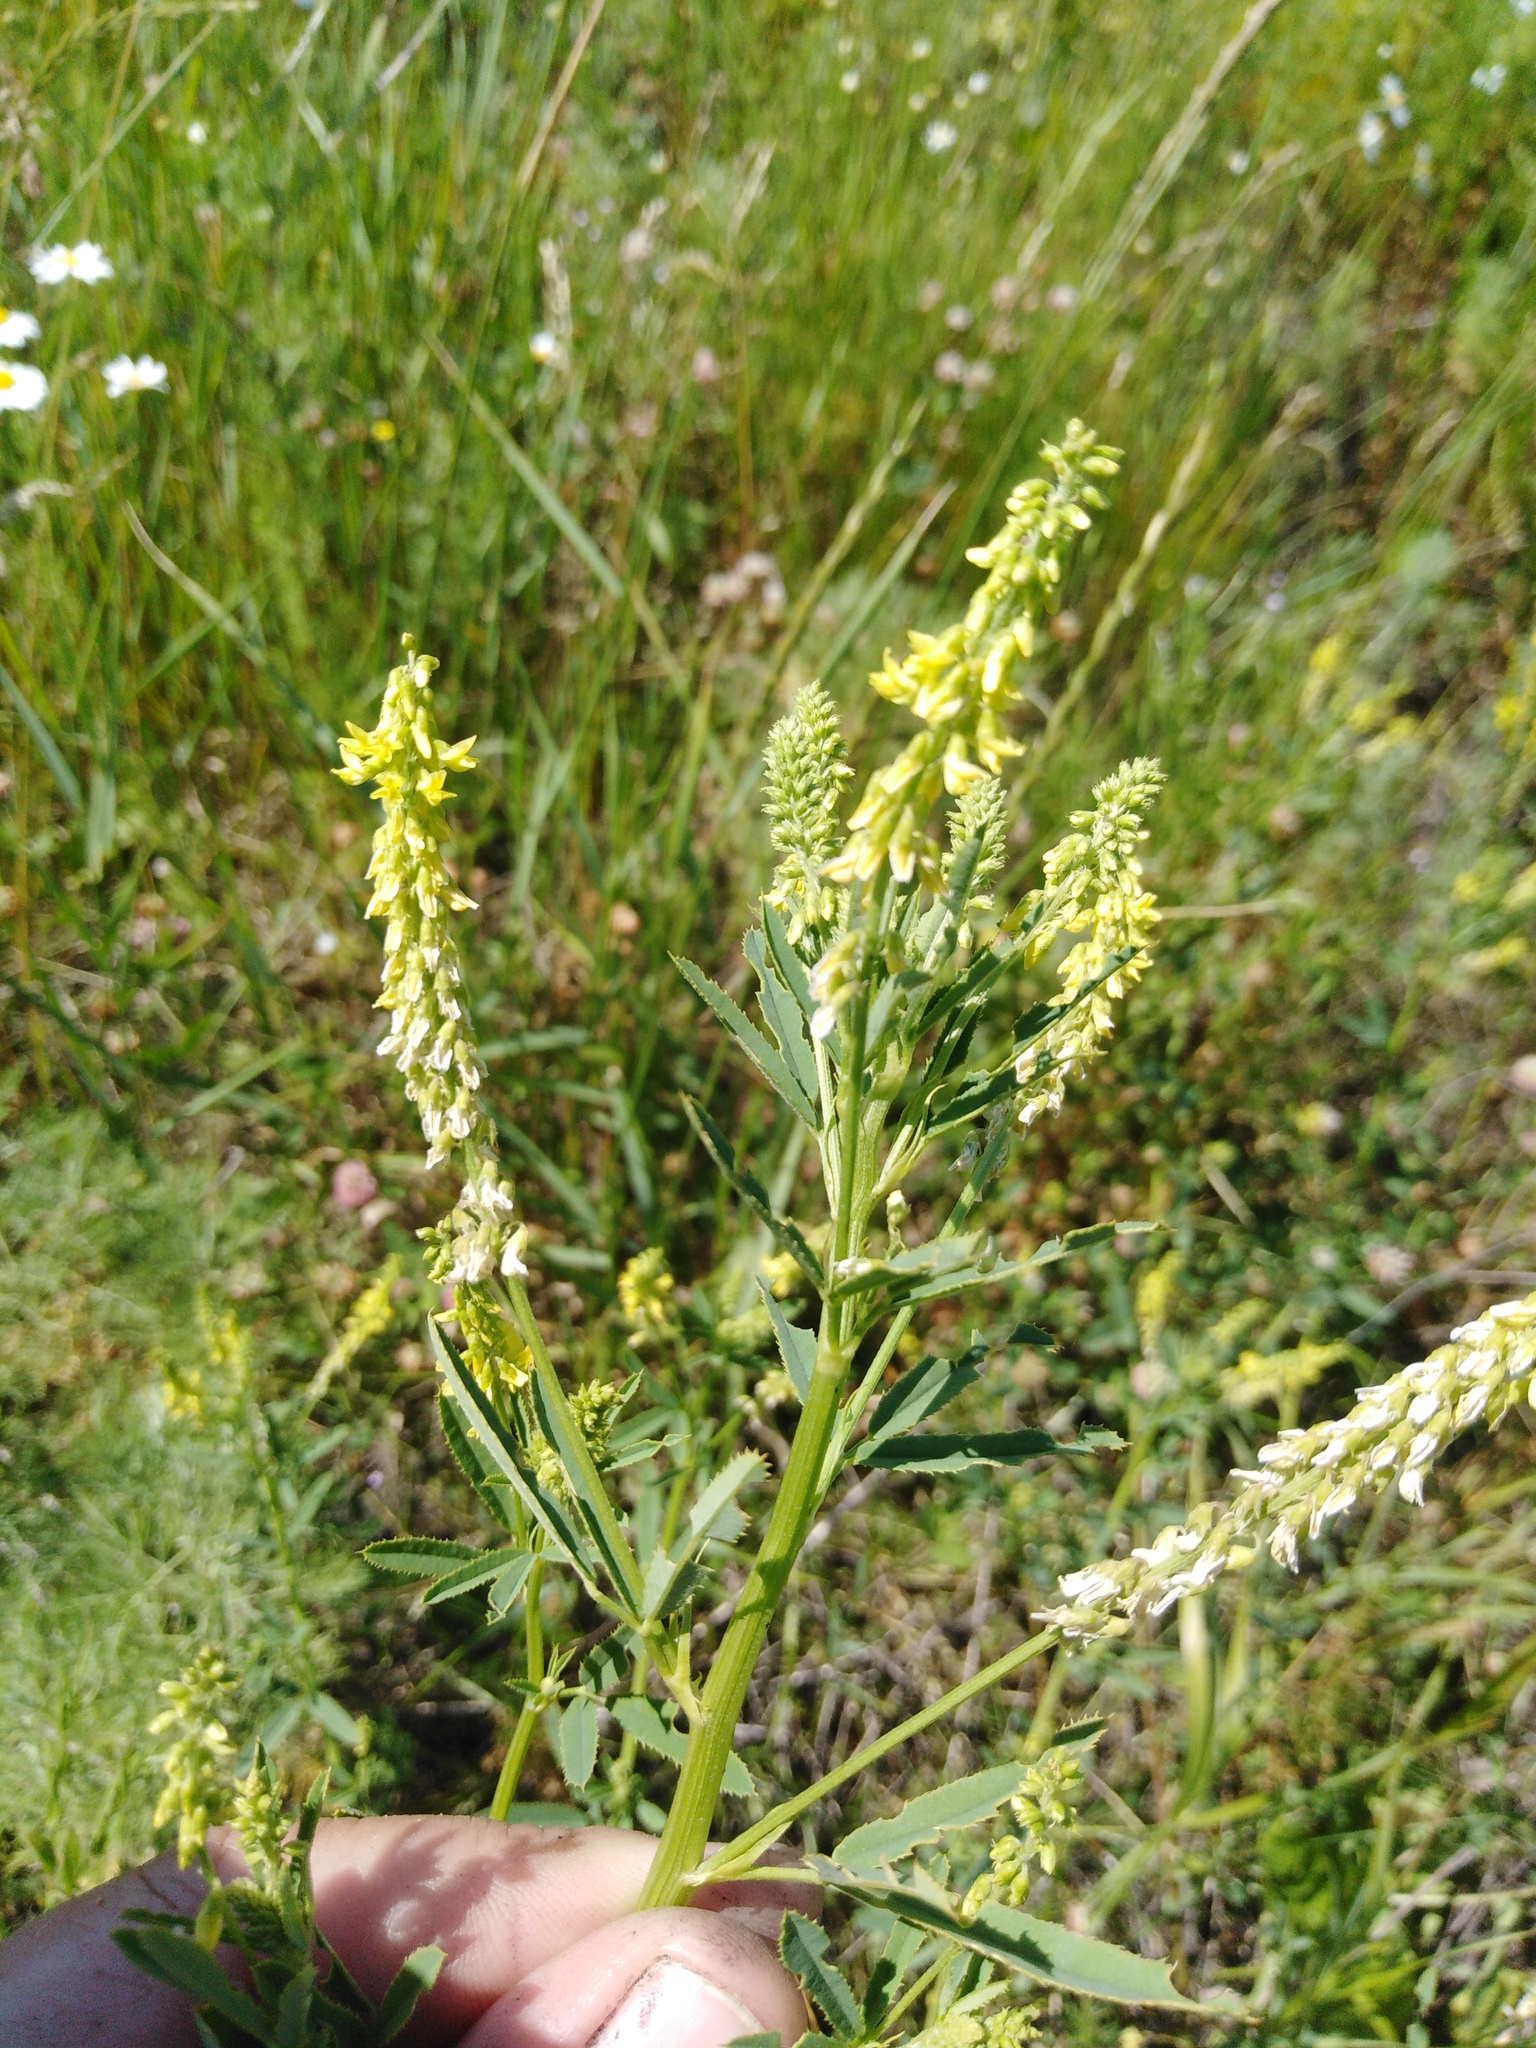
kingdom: Plantae
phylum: Tracheophyta
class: Magnoliopsida
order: Fabales
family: Fabaceae
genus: Melilotus
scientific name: Melilotus dentatus
